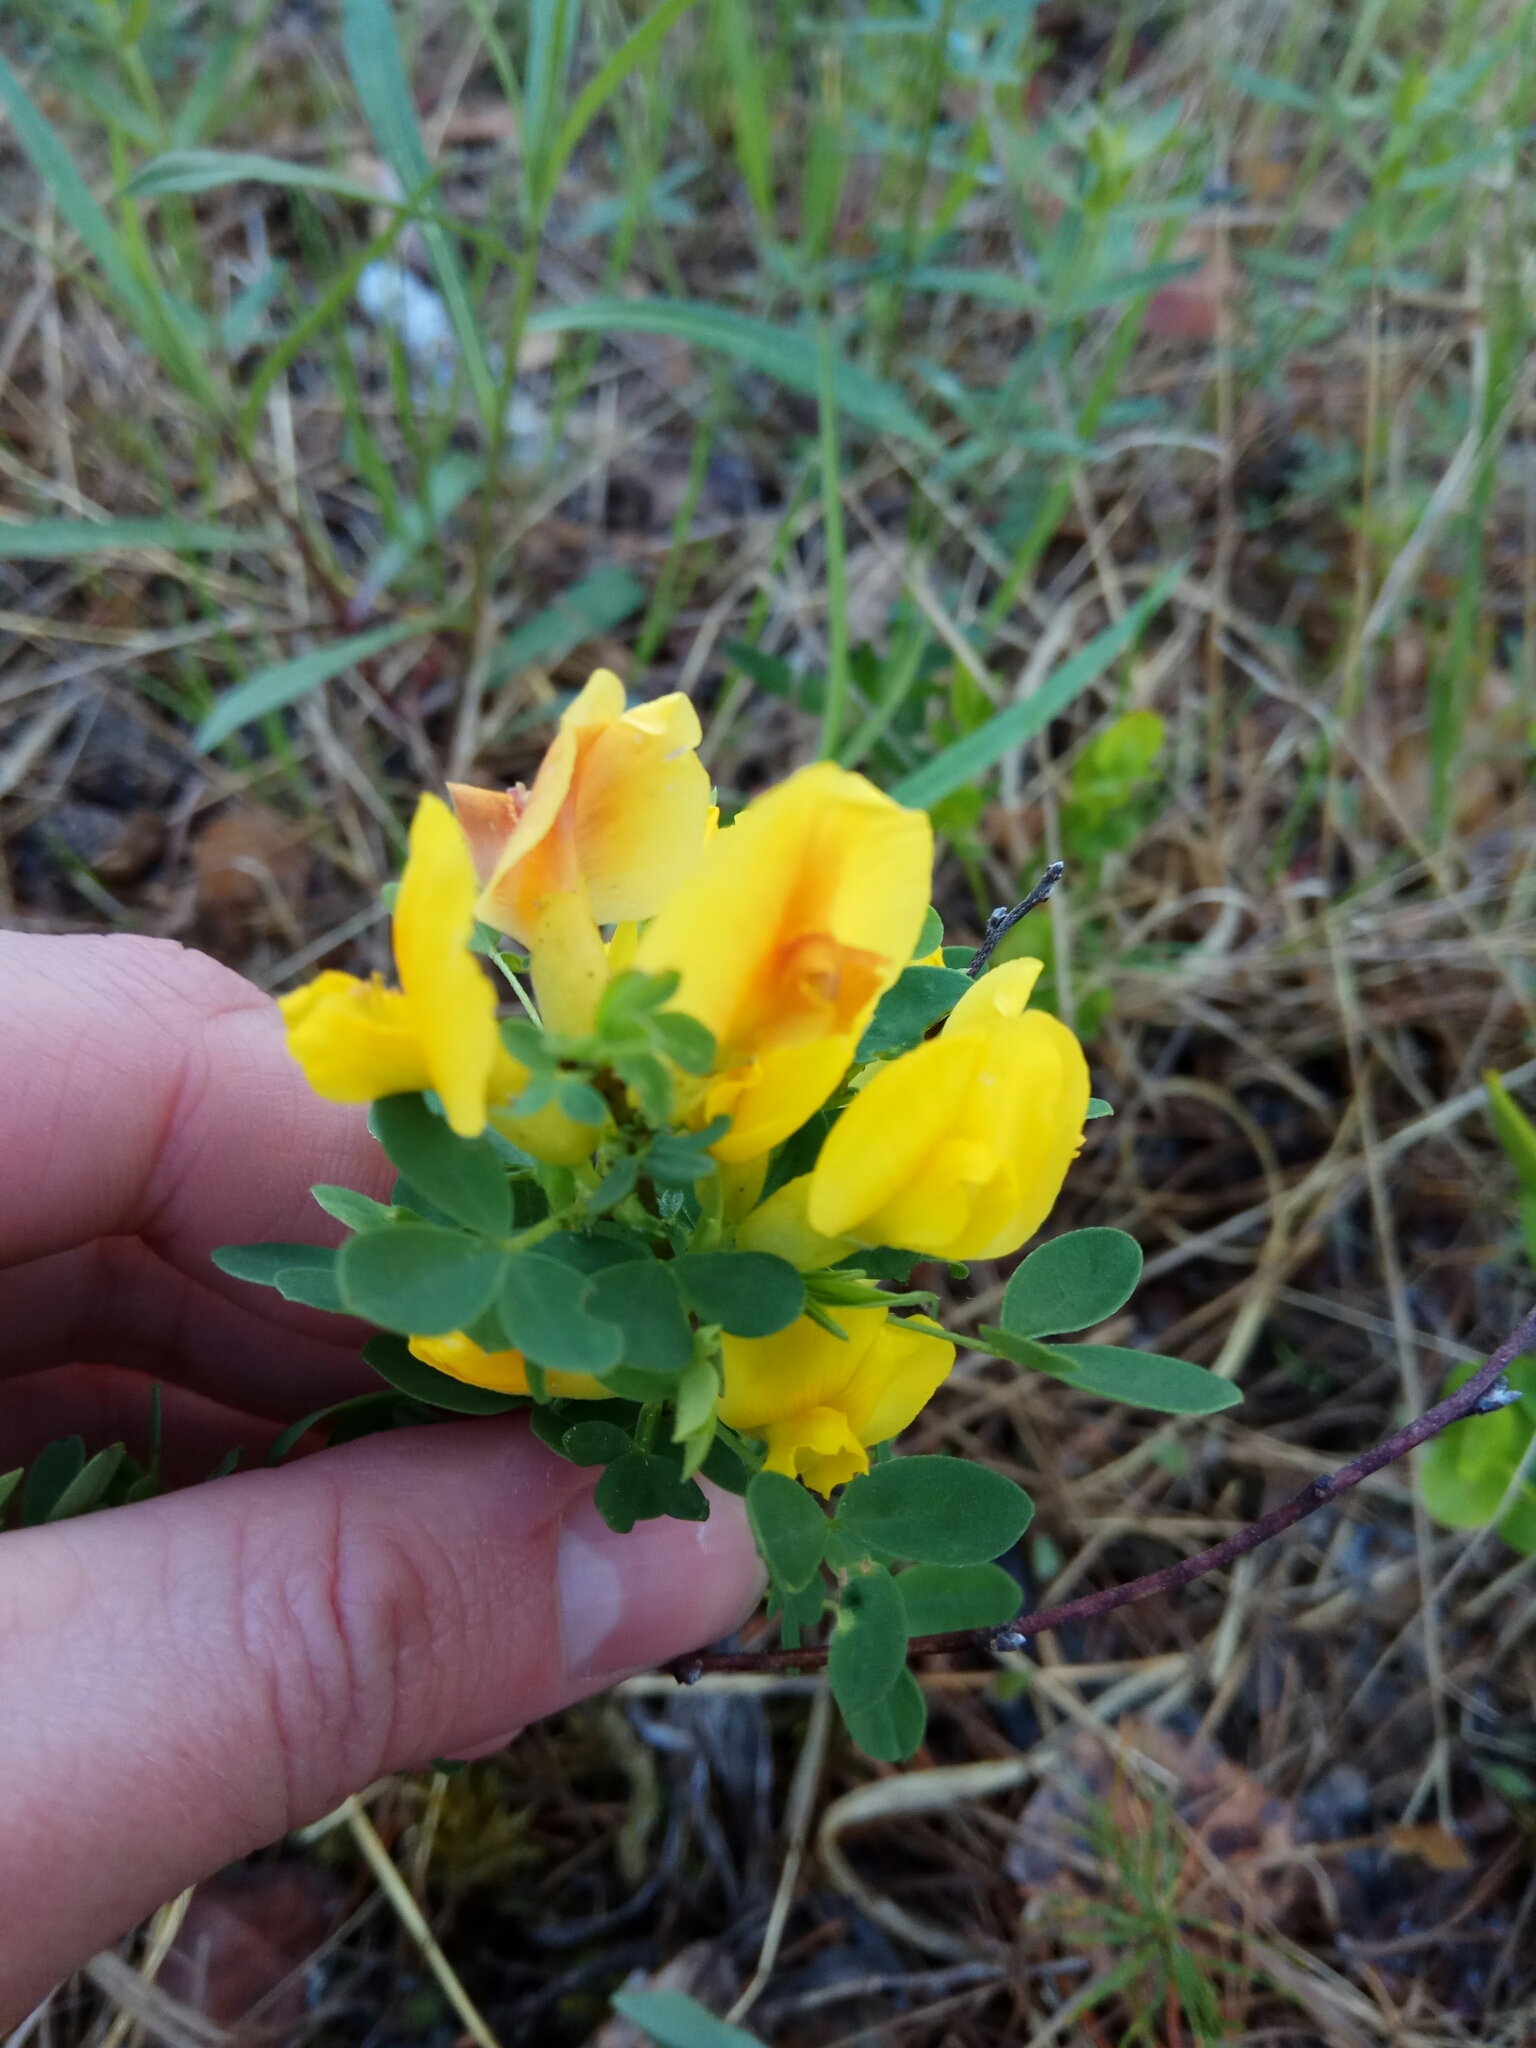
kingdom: Plantae
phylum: Tracheophyta
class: Magnoliopsida
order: Fabales
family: Fabaceae
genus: Chamaecytisus
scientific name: Chamaecytisus ruthenicus
